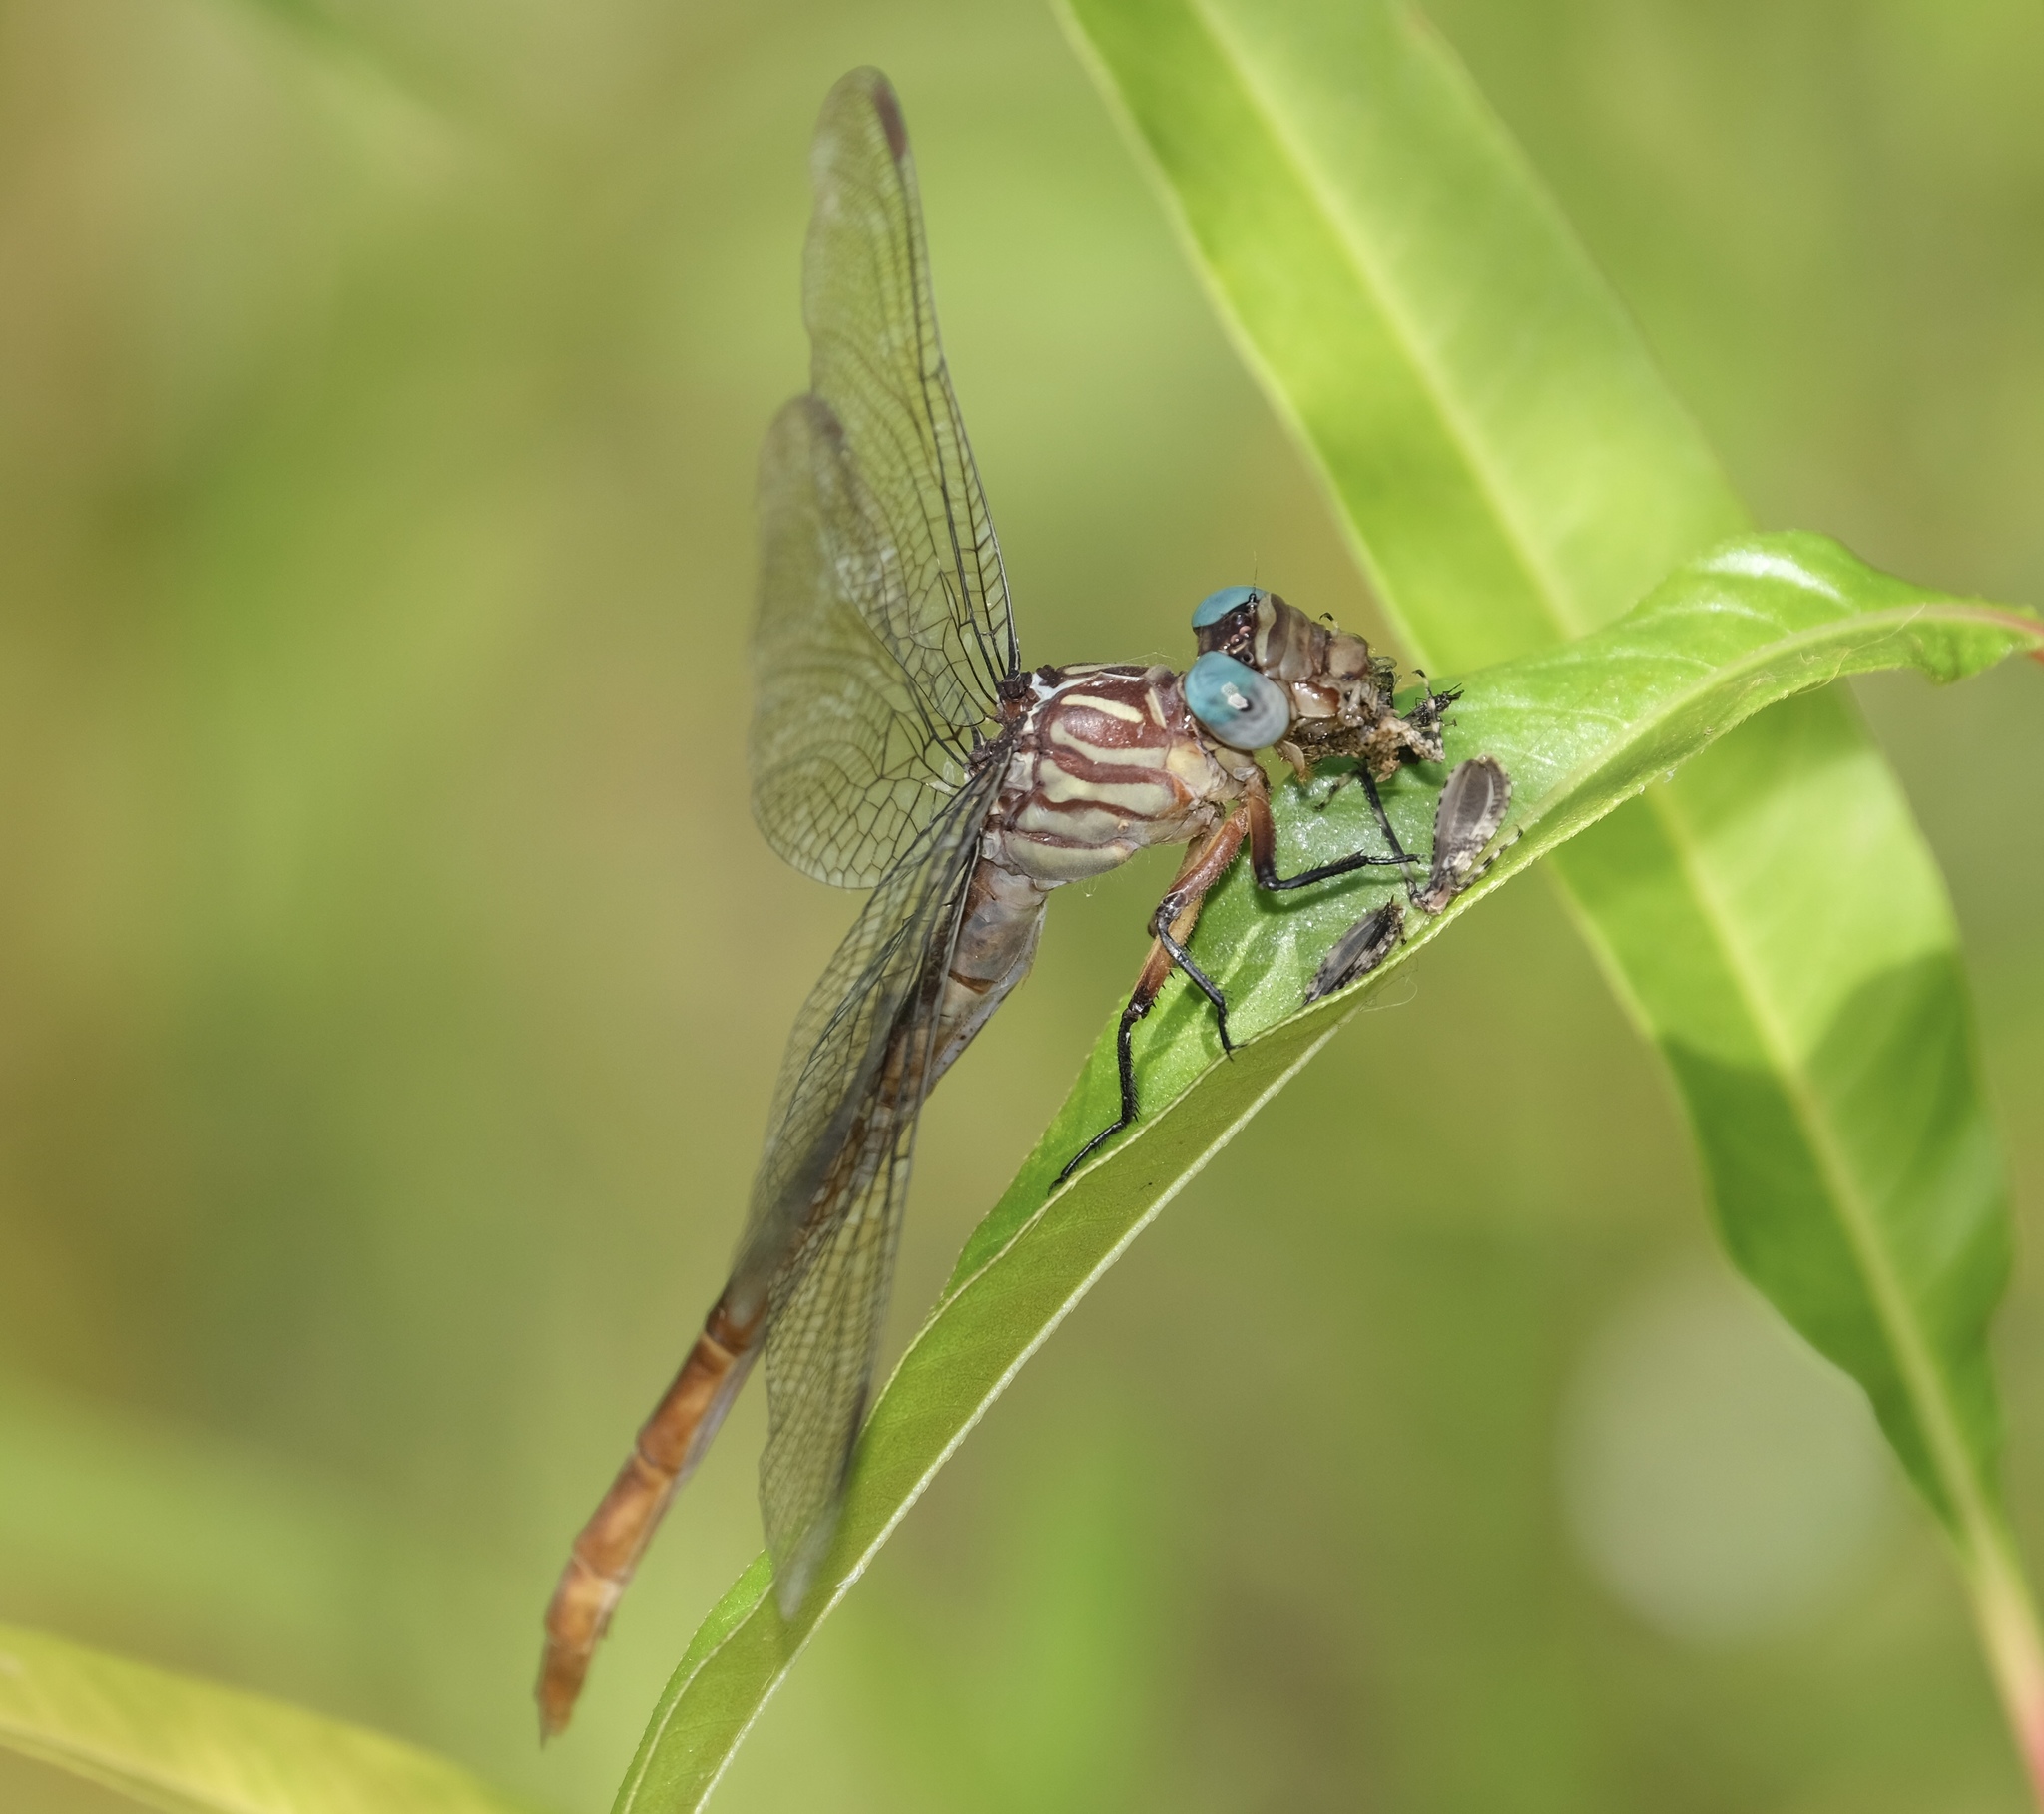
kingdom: Animalia
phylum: Arthropoda
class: Insecta
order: Odonata
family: Gomphidae
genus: Stylurus
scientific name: Stylurus plagiatus
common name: Russet-tipped clubtail
